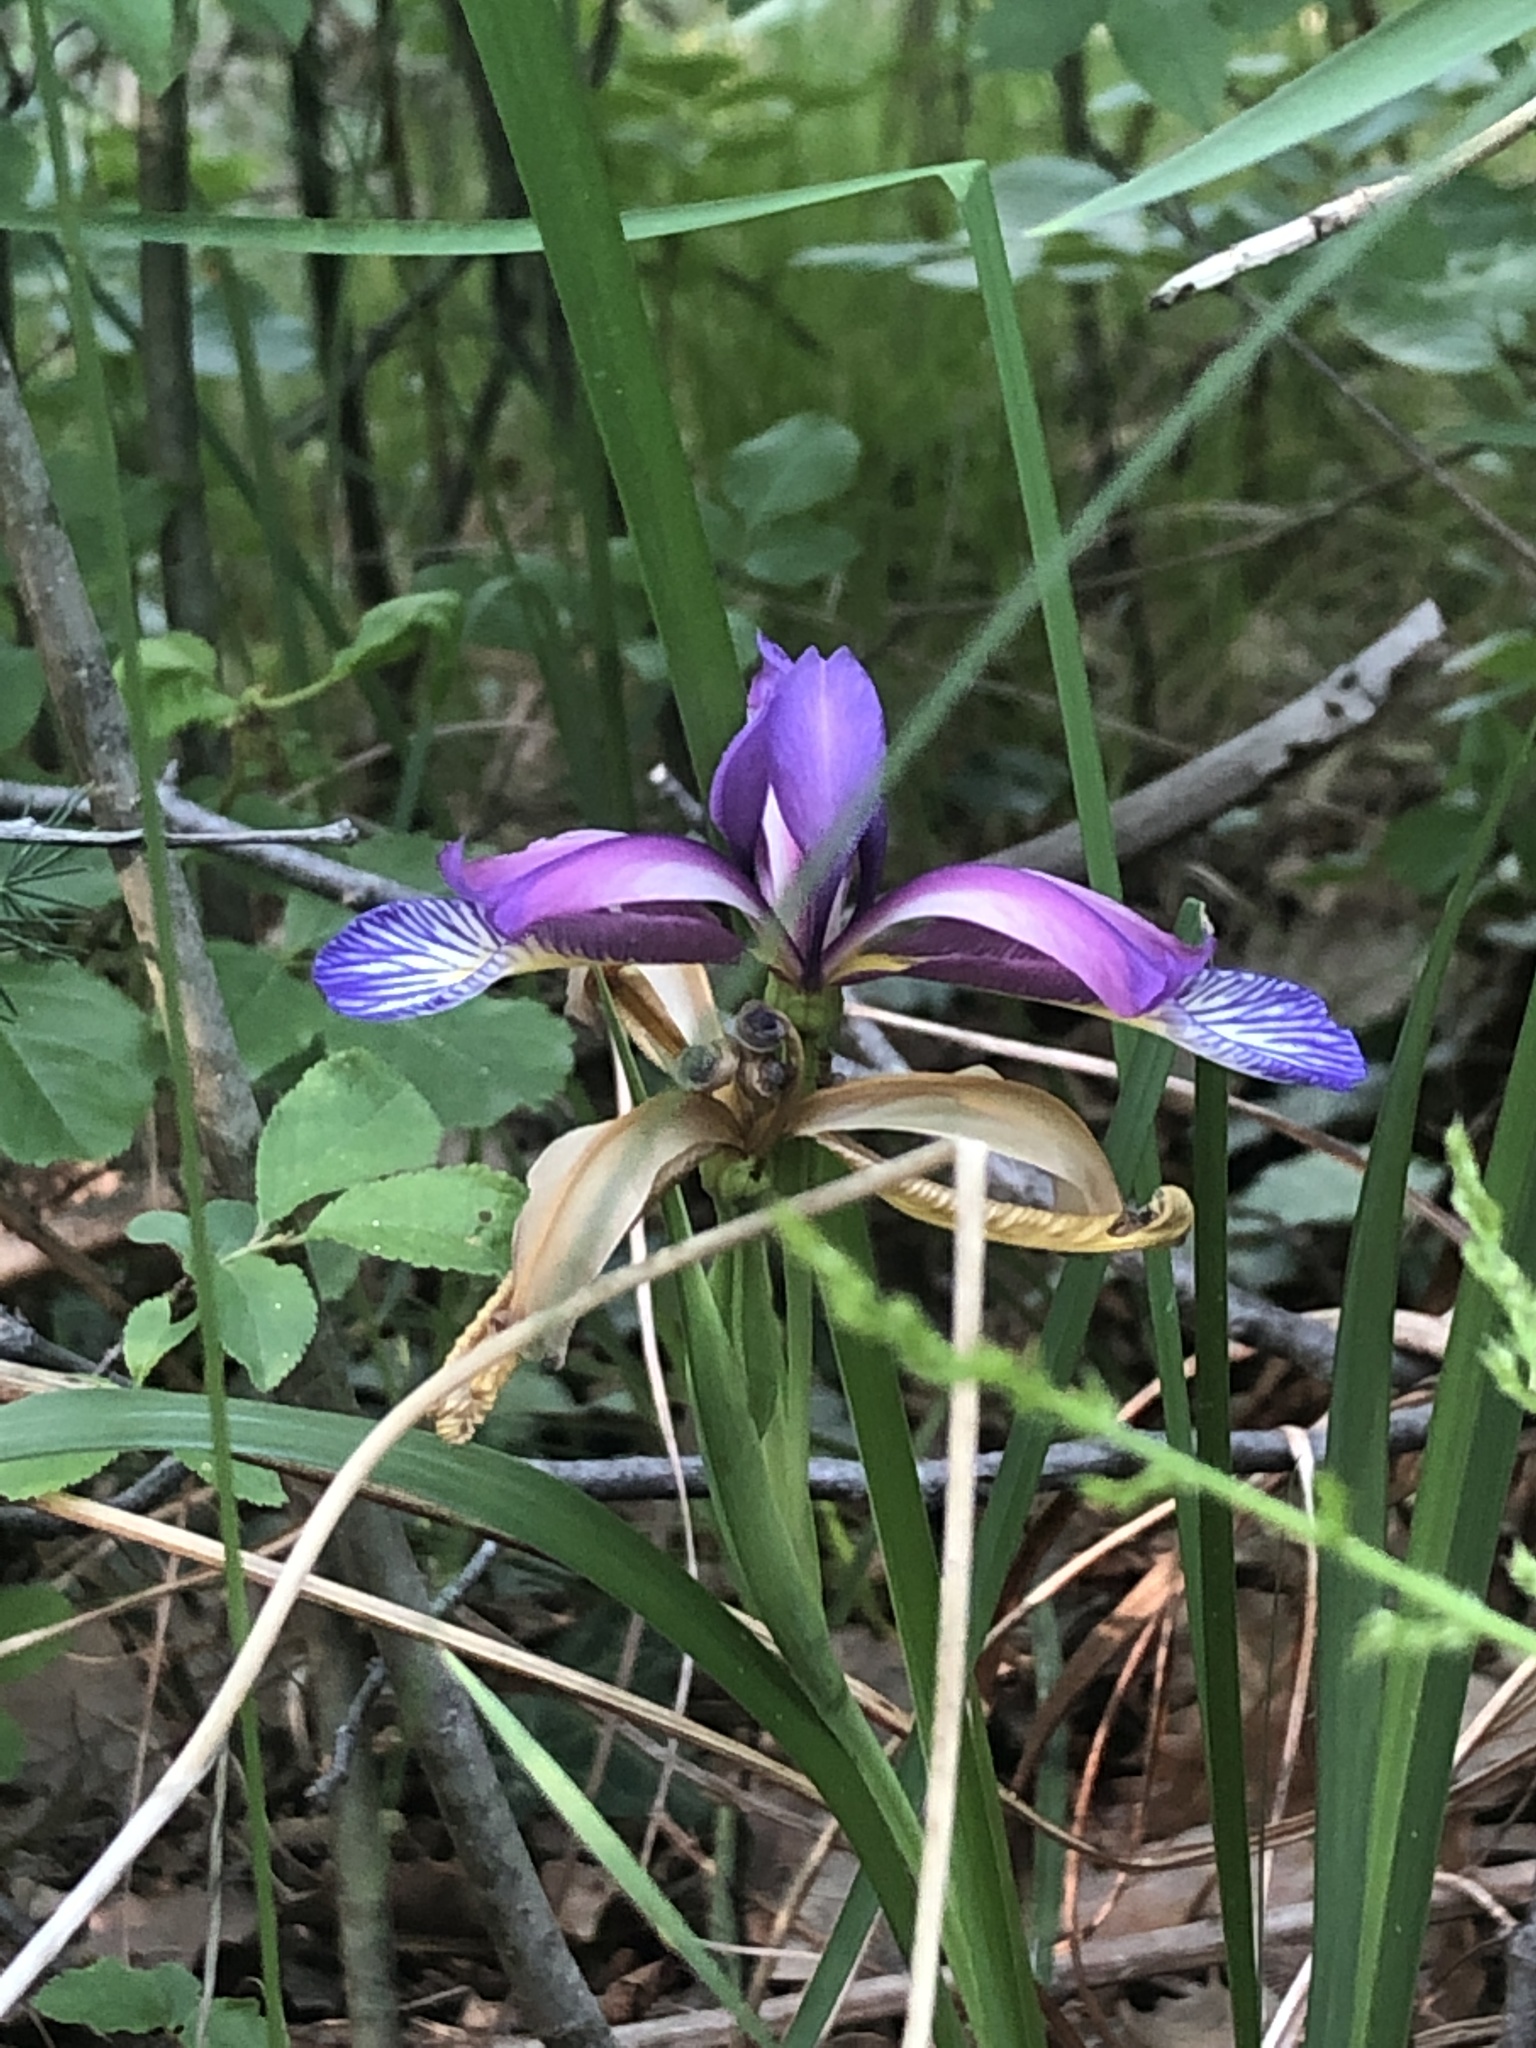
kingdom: Plantae
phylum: Tracheophyta
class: Liliopsida
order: Asparagales
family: Iridaceae
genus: Iris
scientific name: Iris graminea
